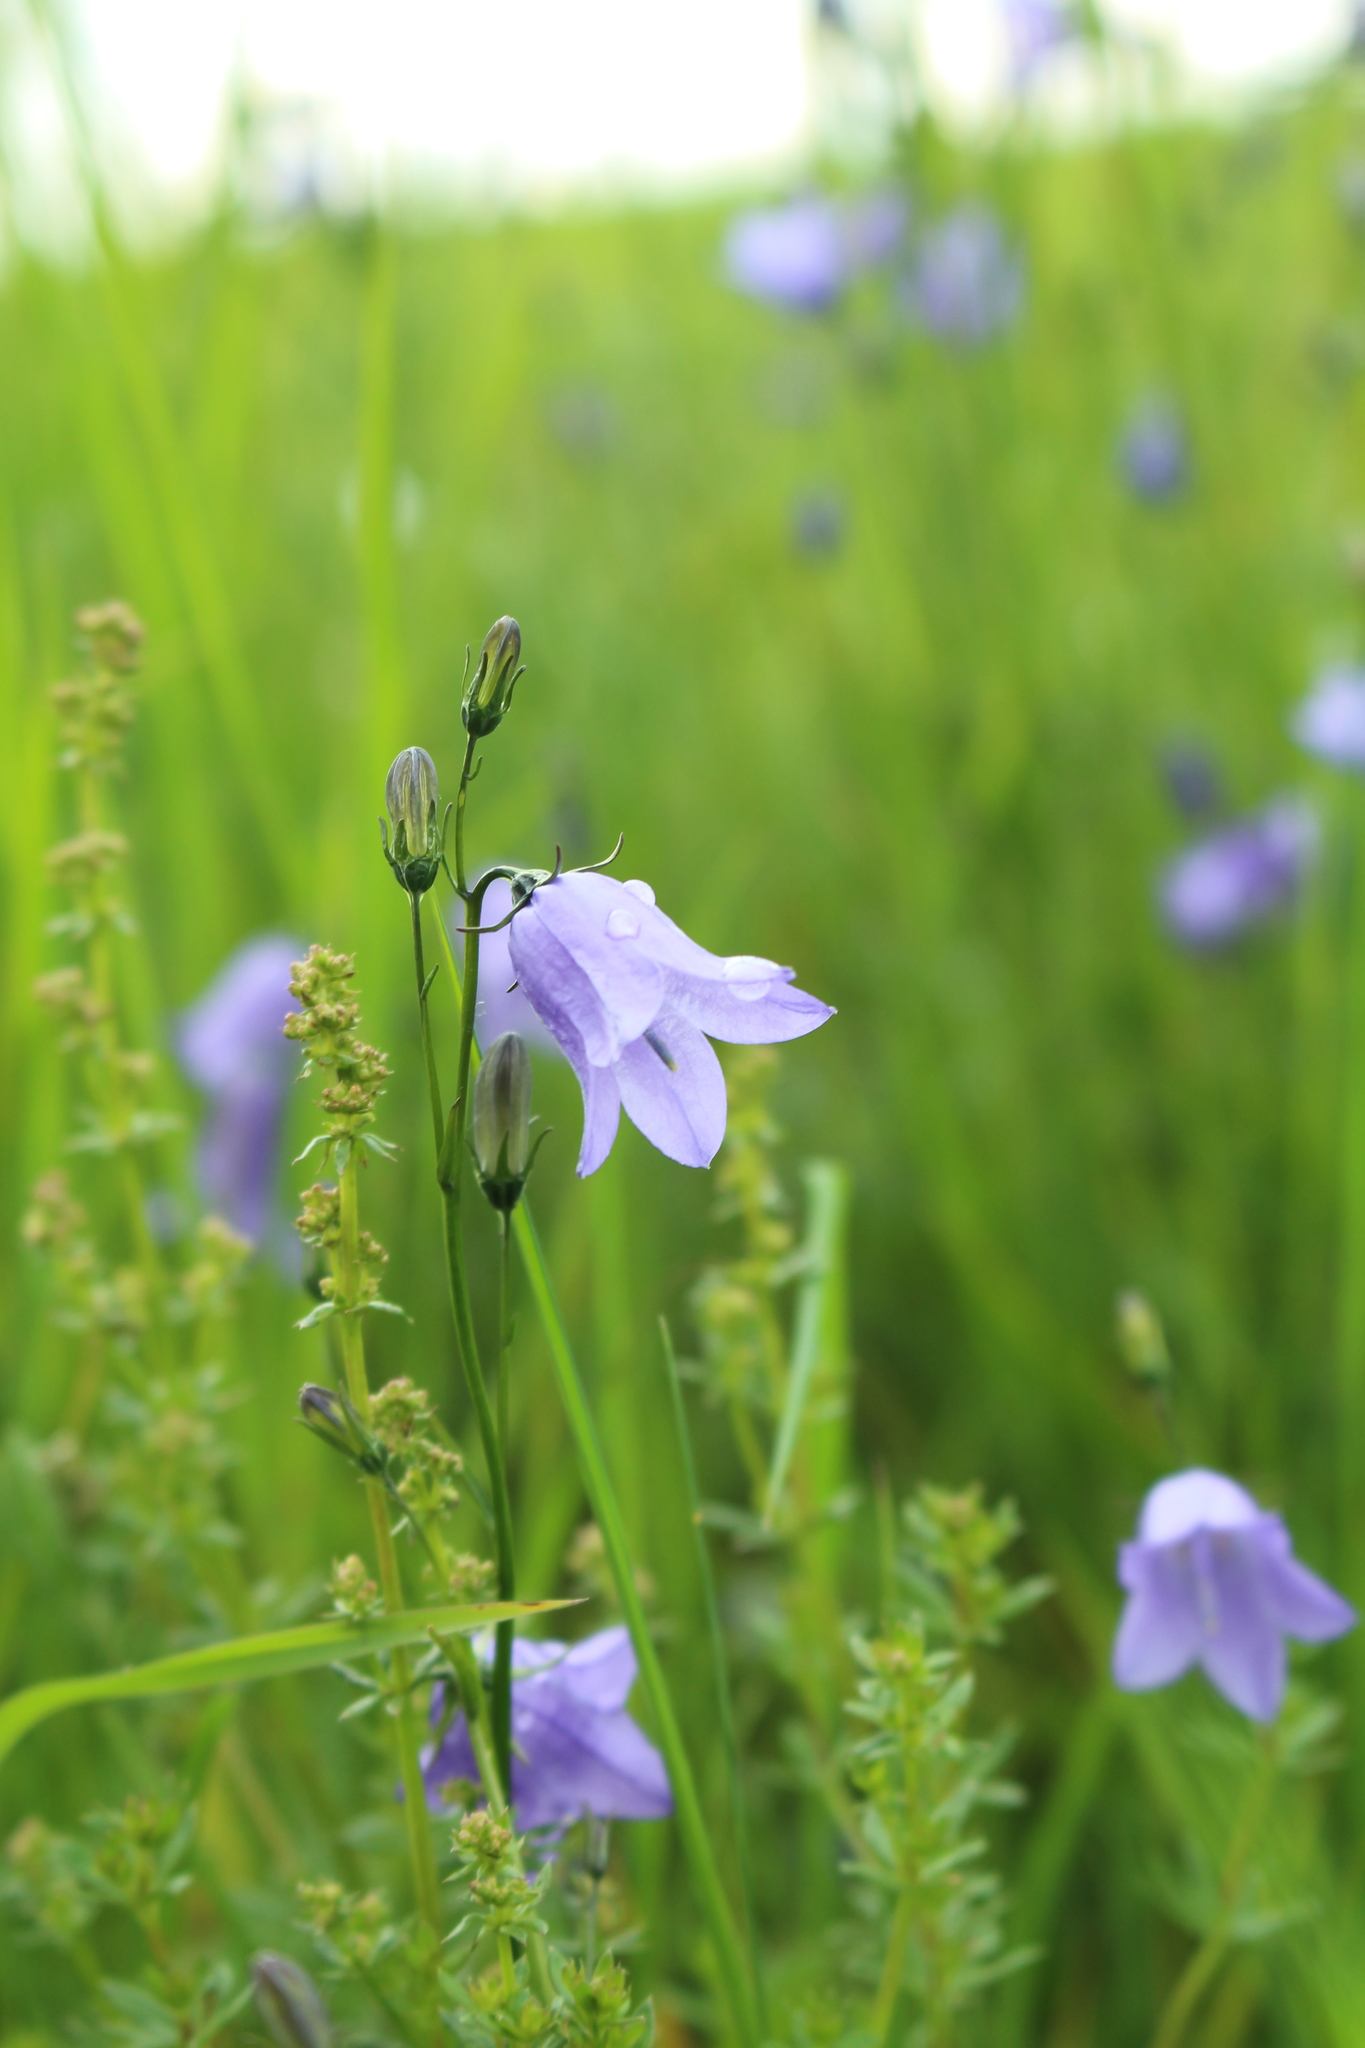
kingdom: Plantae
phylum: Tracheophyta
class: Magnoliopsida
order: Asterales
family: Campanulaceae
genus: Campanula
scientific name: Campanula rotundifolia
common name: Harebell
